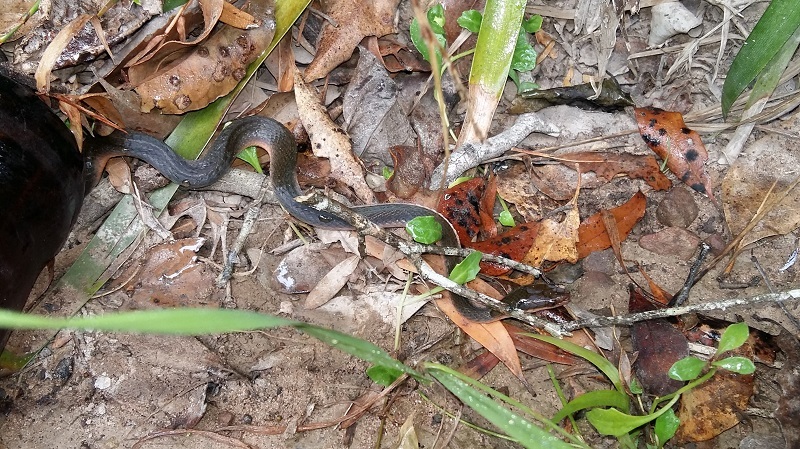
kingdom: Animalia
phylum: Chordata
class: Squamata
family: Lamprophiidae
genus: Lycodonomorphus
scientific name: Lycodonomorphus rufulus
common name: Brown water snake
